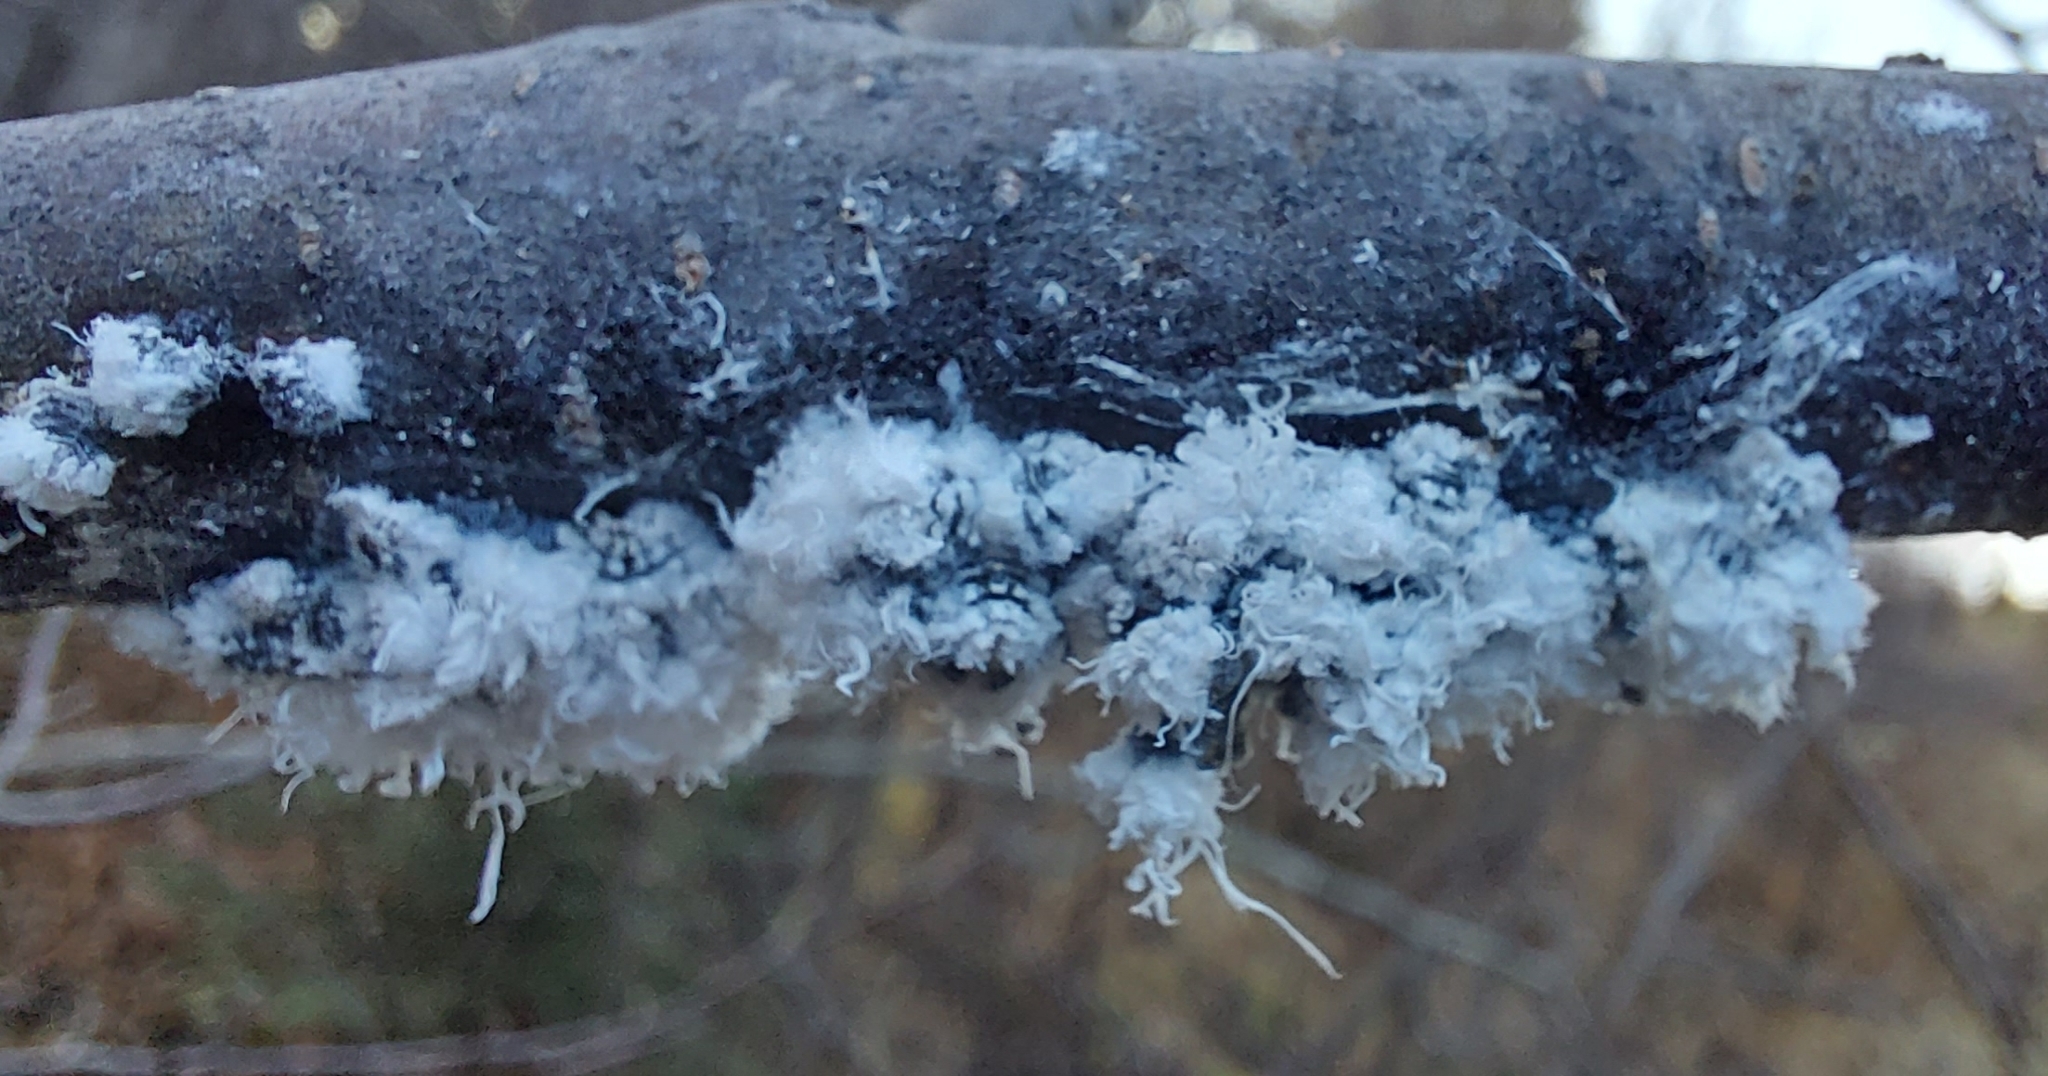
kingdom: Animalia
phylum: Arthropoda
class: Insecta
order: Hemiptera
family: Aphididae
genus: Prociphilus
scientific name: Prociphilus tessellatus
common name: Woolly alder aphid
